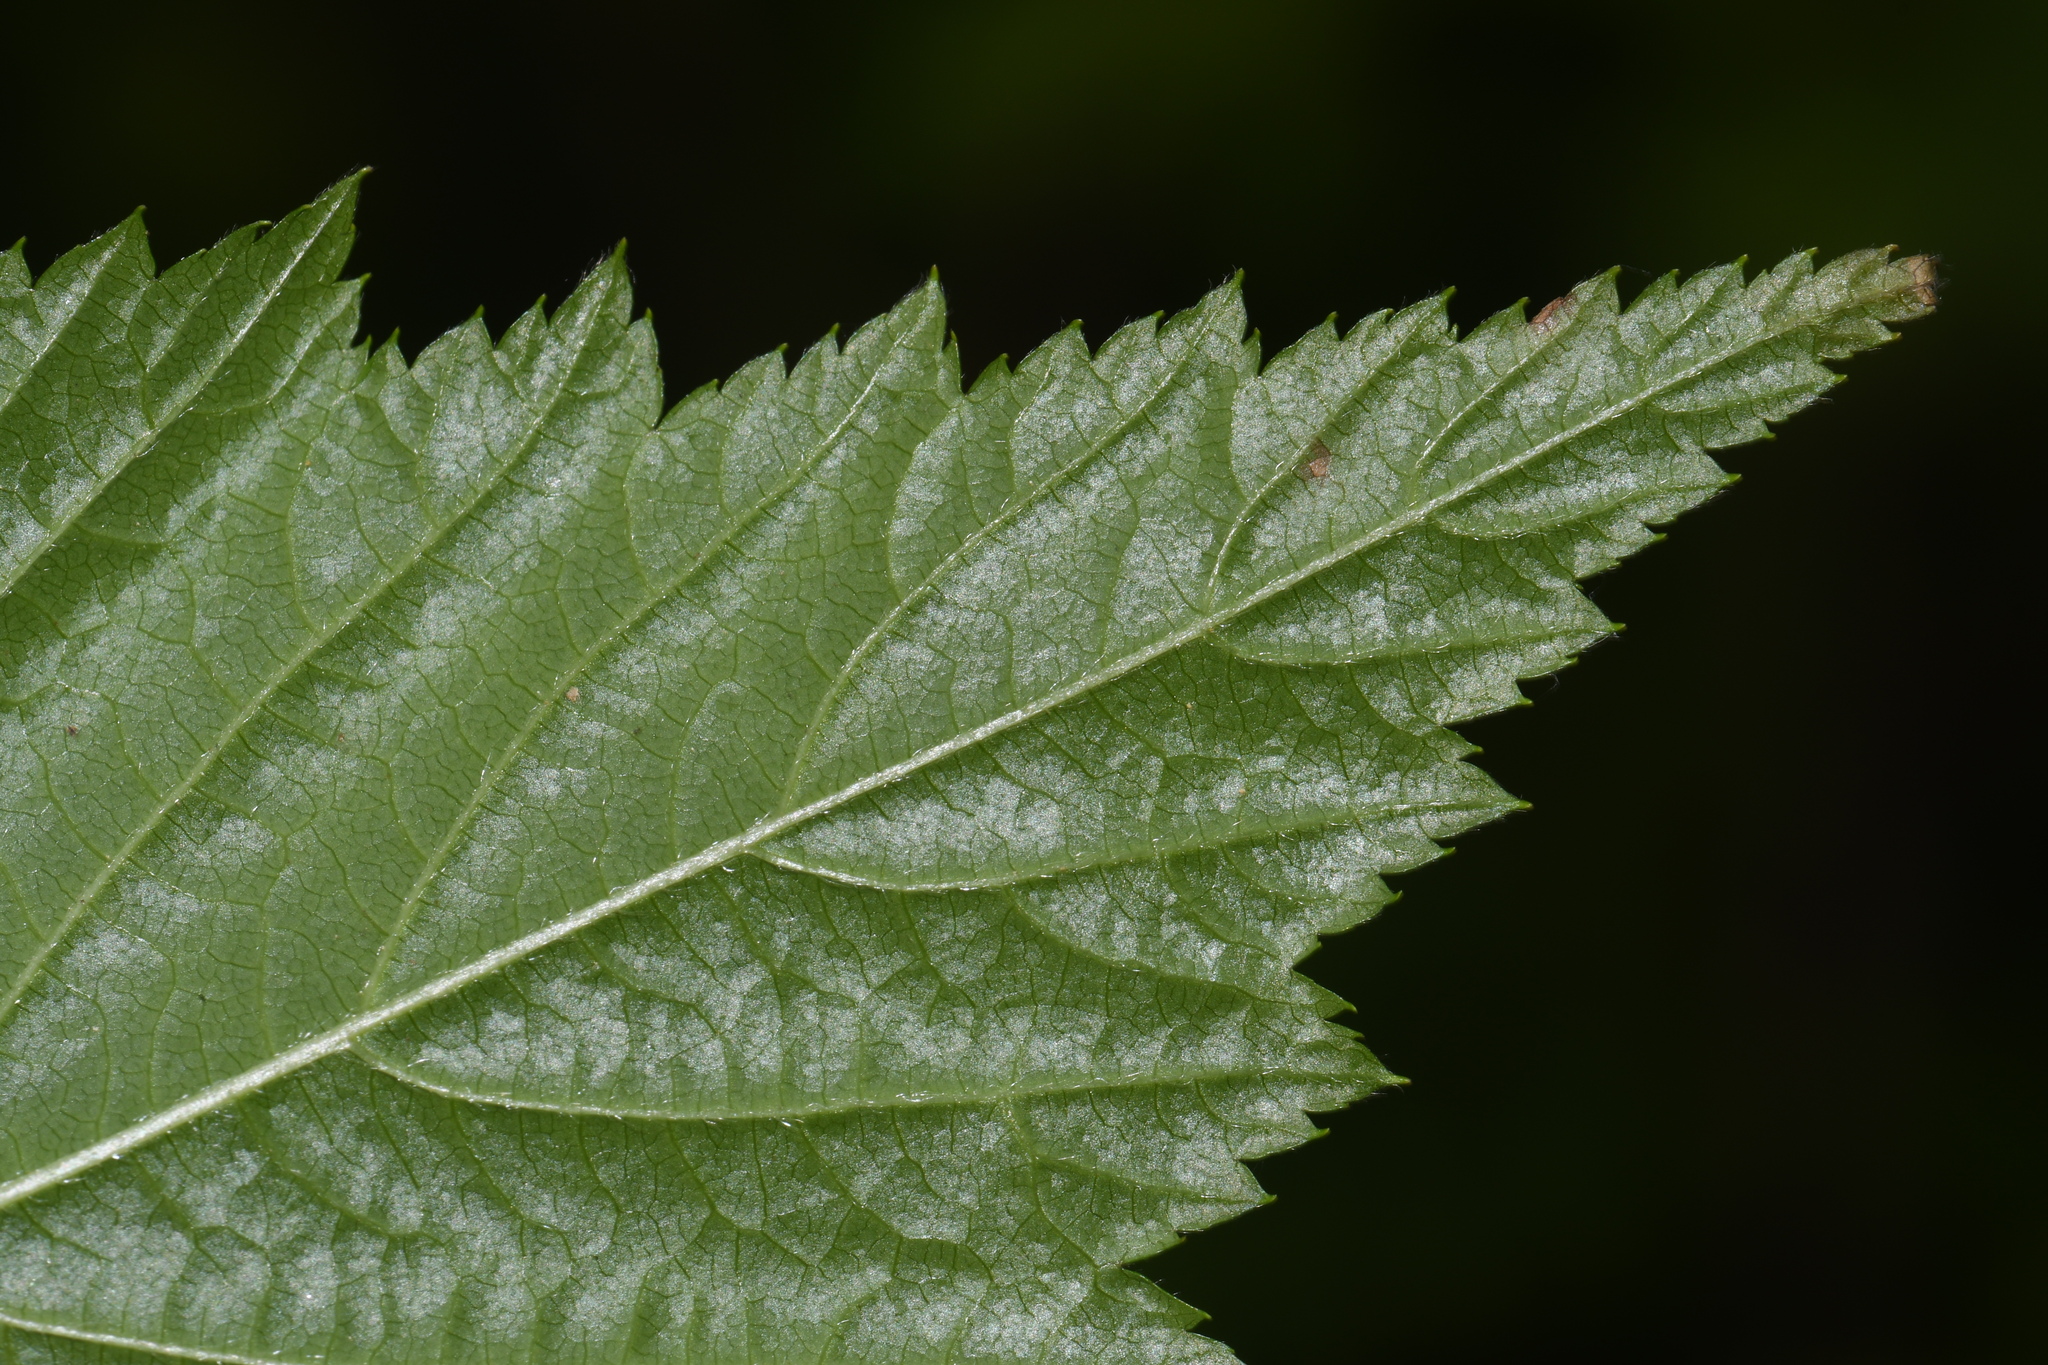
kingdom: Plantae
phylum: Tracheophyta
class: Magnoliopsida
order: Rosales
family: Rosaceae
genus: Rubus
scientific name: Rubus spectabilis
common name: Salmonberry
